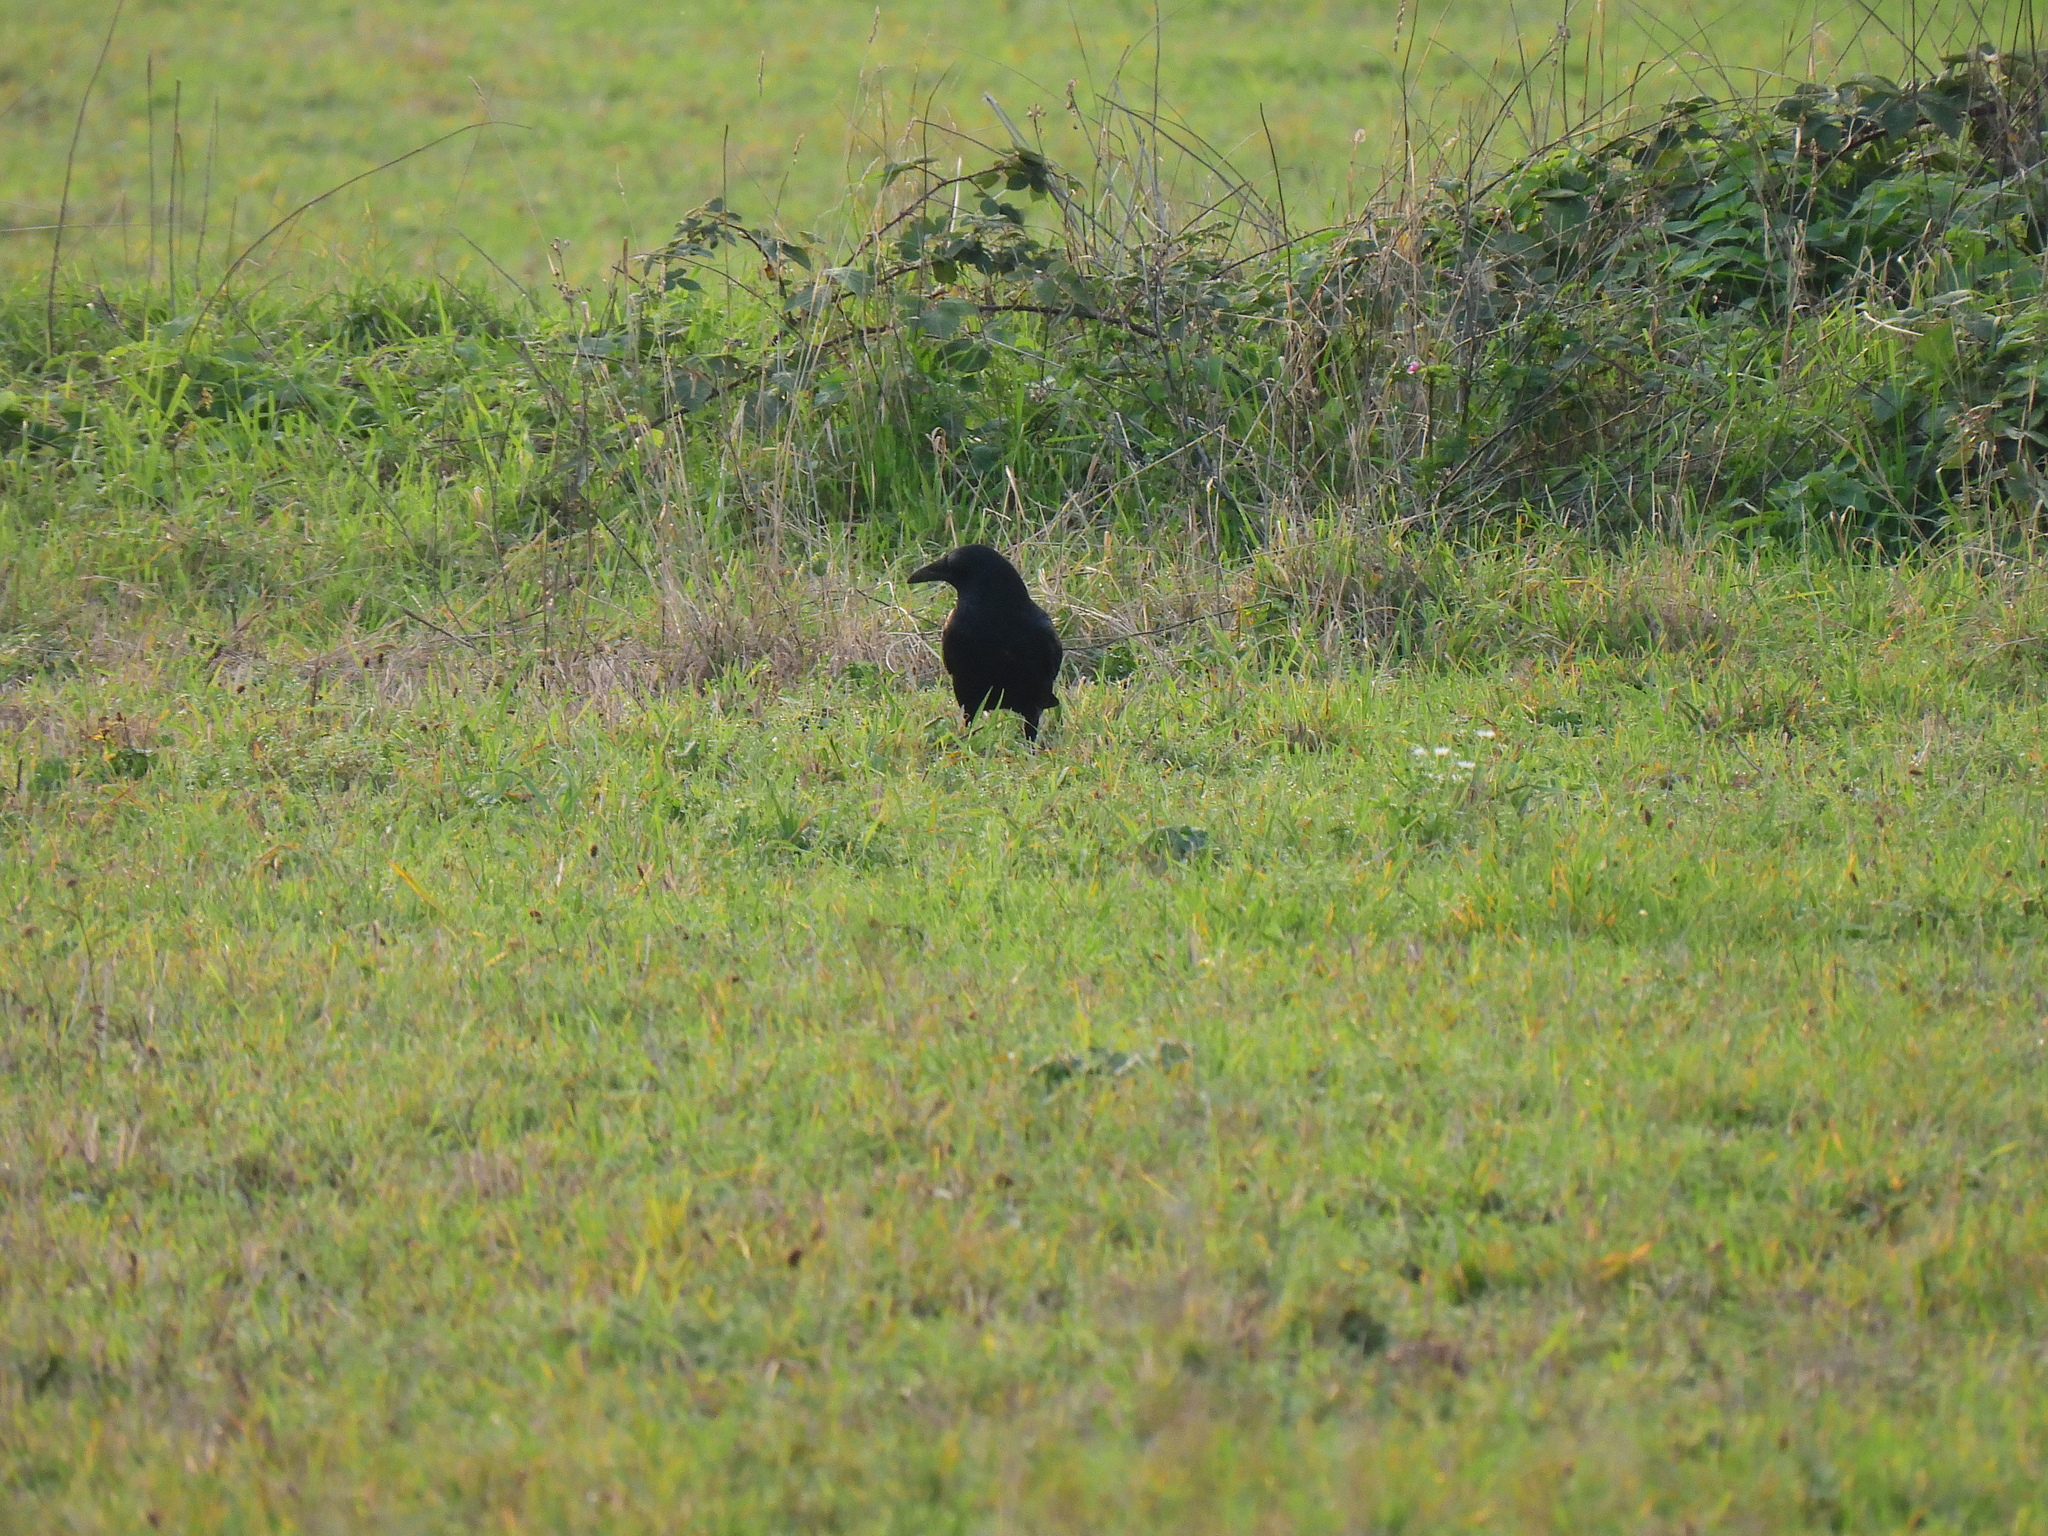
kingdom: Animalia
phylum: Chordata
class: Aves
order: Passeriformes
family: Corvidae
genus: Corvus
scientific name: Corvus corone
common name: Carrion crow
